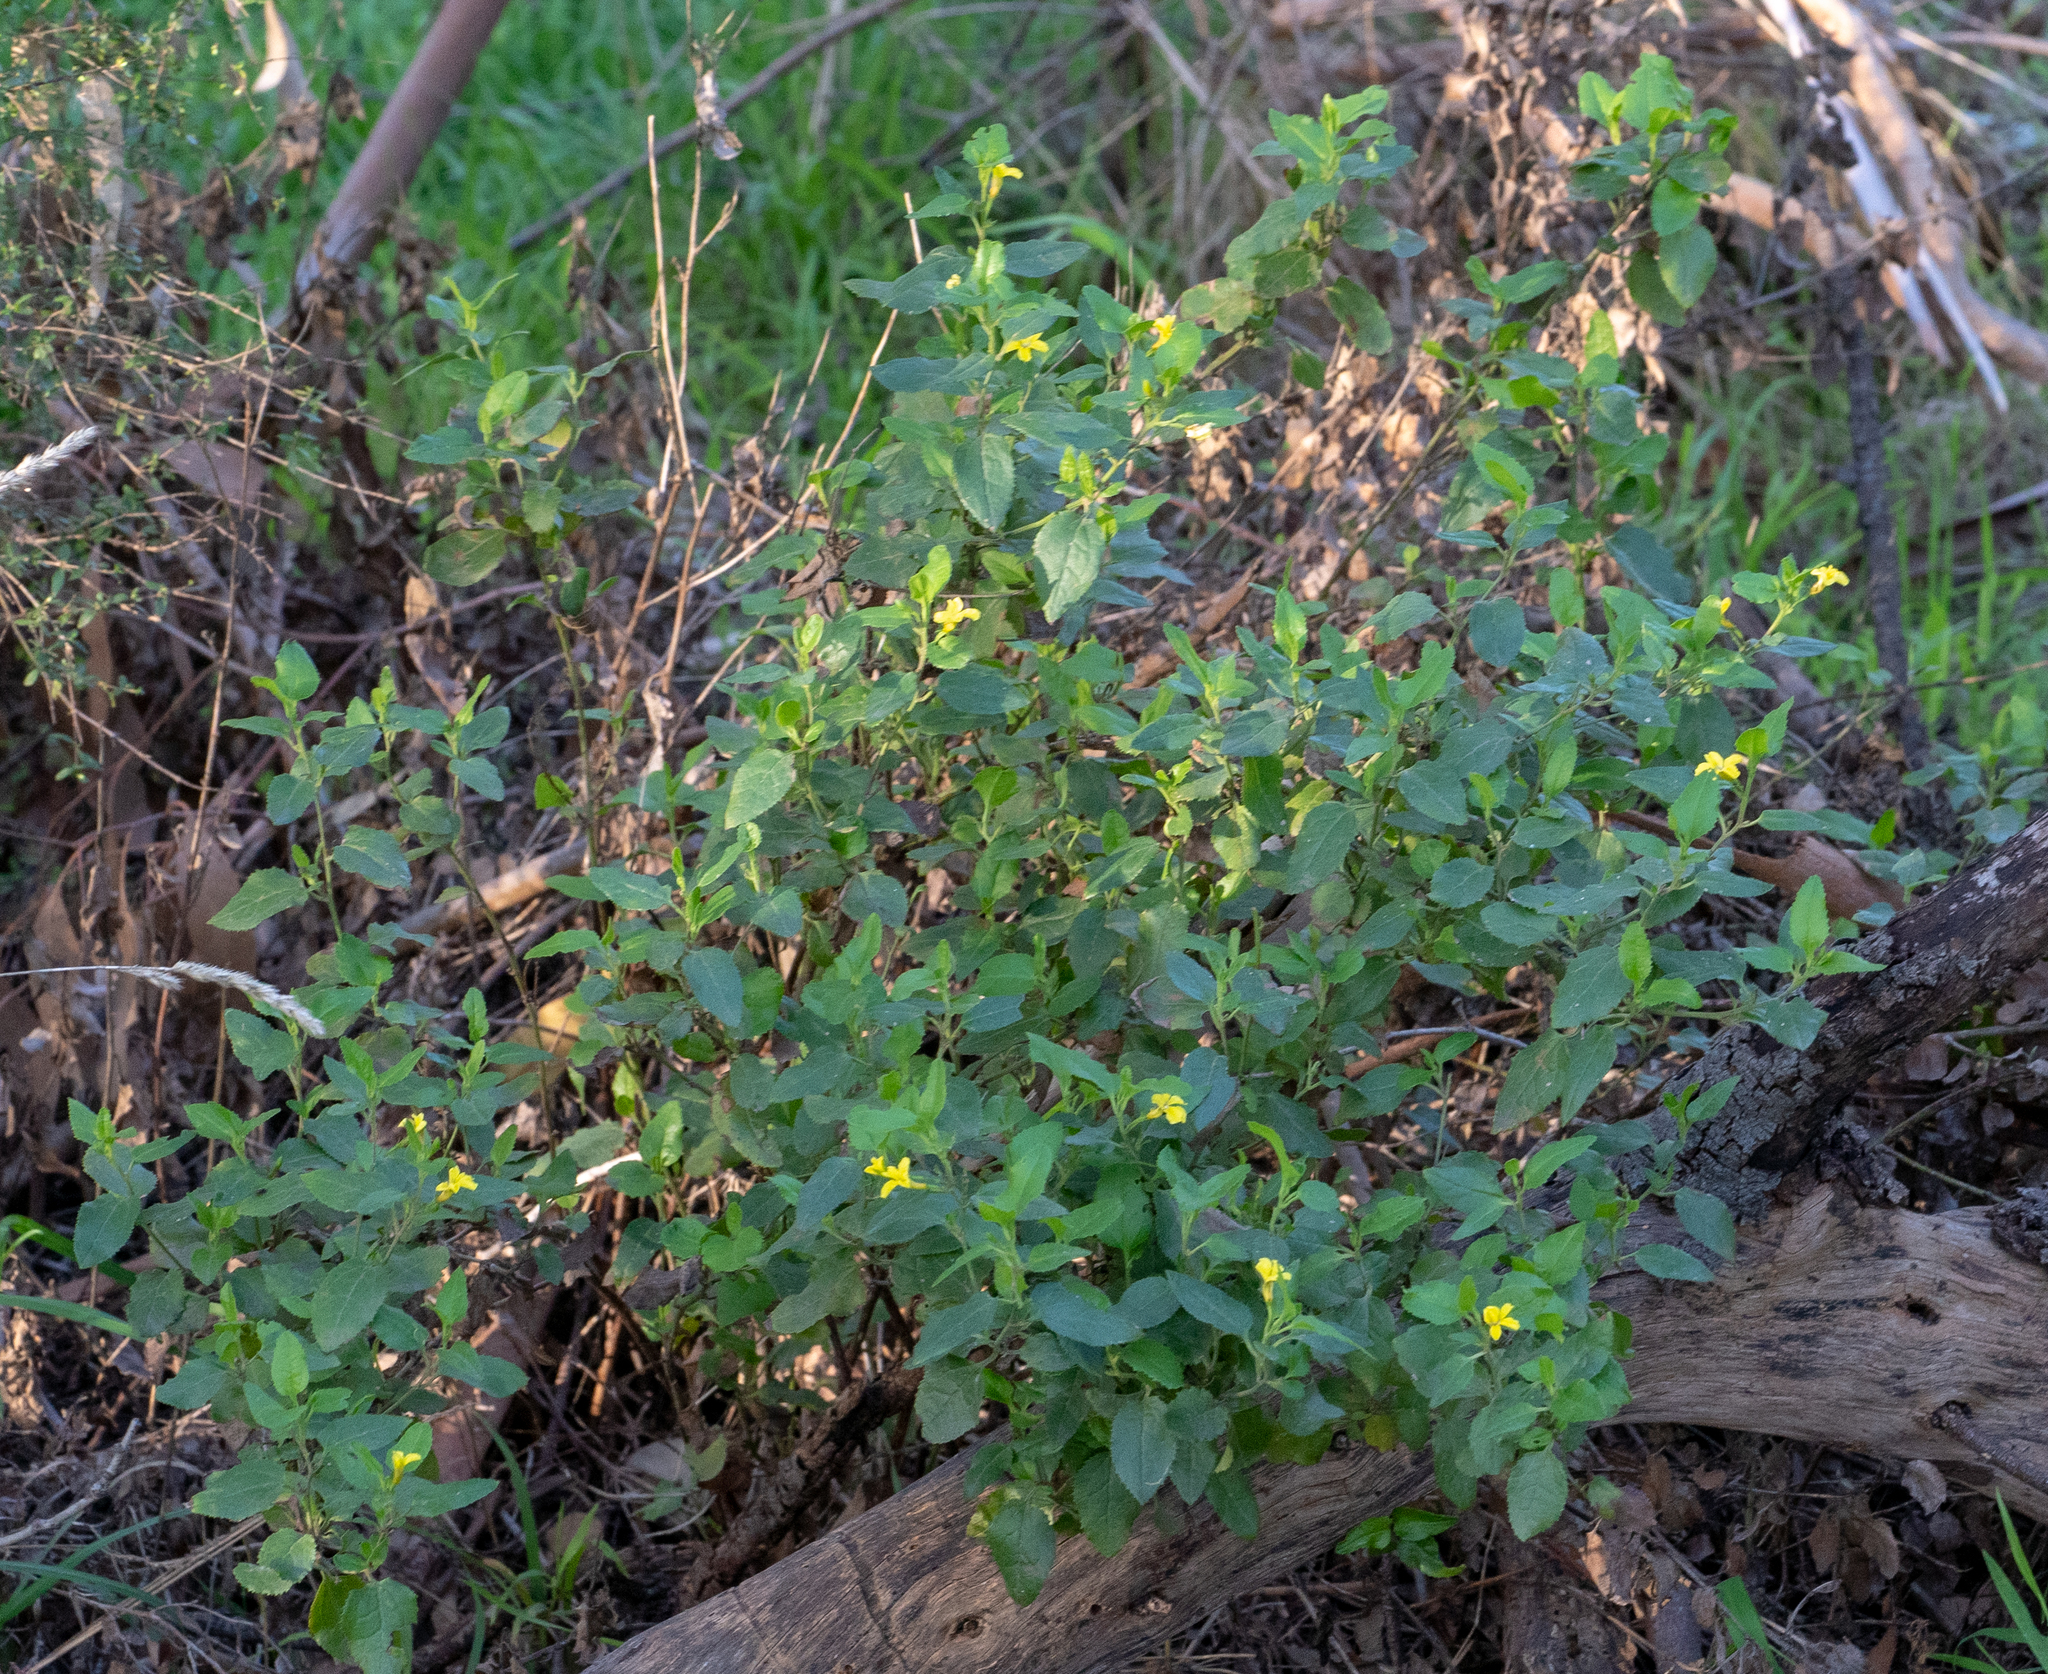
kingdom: Plantae
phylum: Tracheophyta
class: Magnoliopsida
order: Asterales
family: Goodeniaceae
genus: Goodenia
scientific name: Goodenia ovata
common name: Hop goodenia
